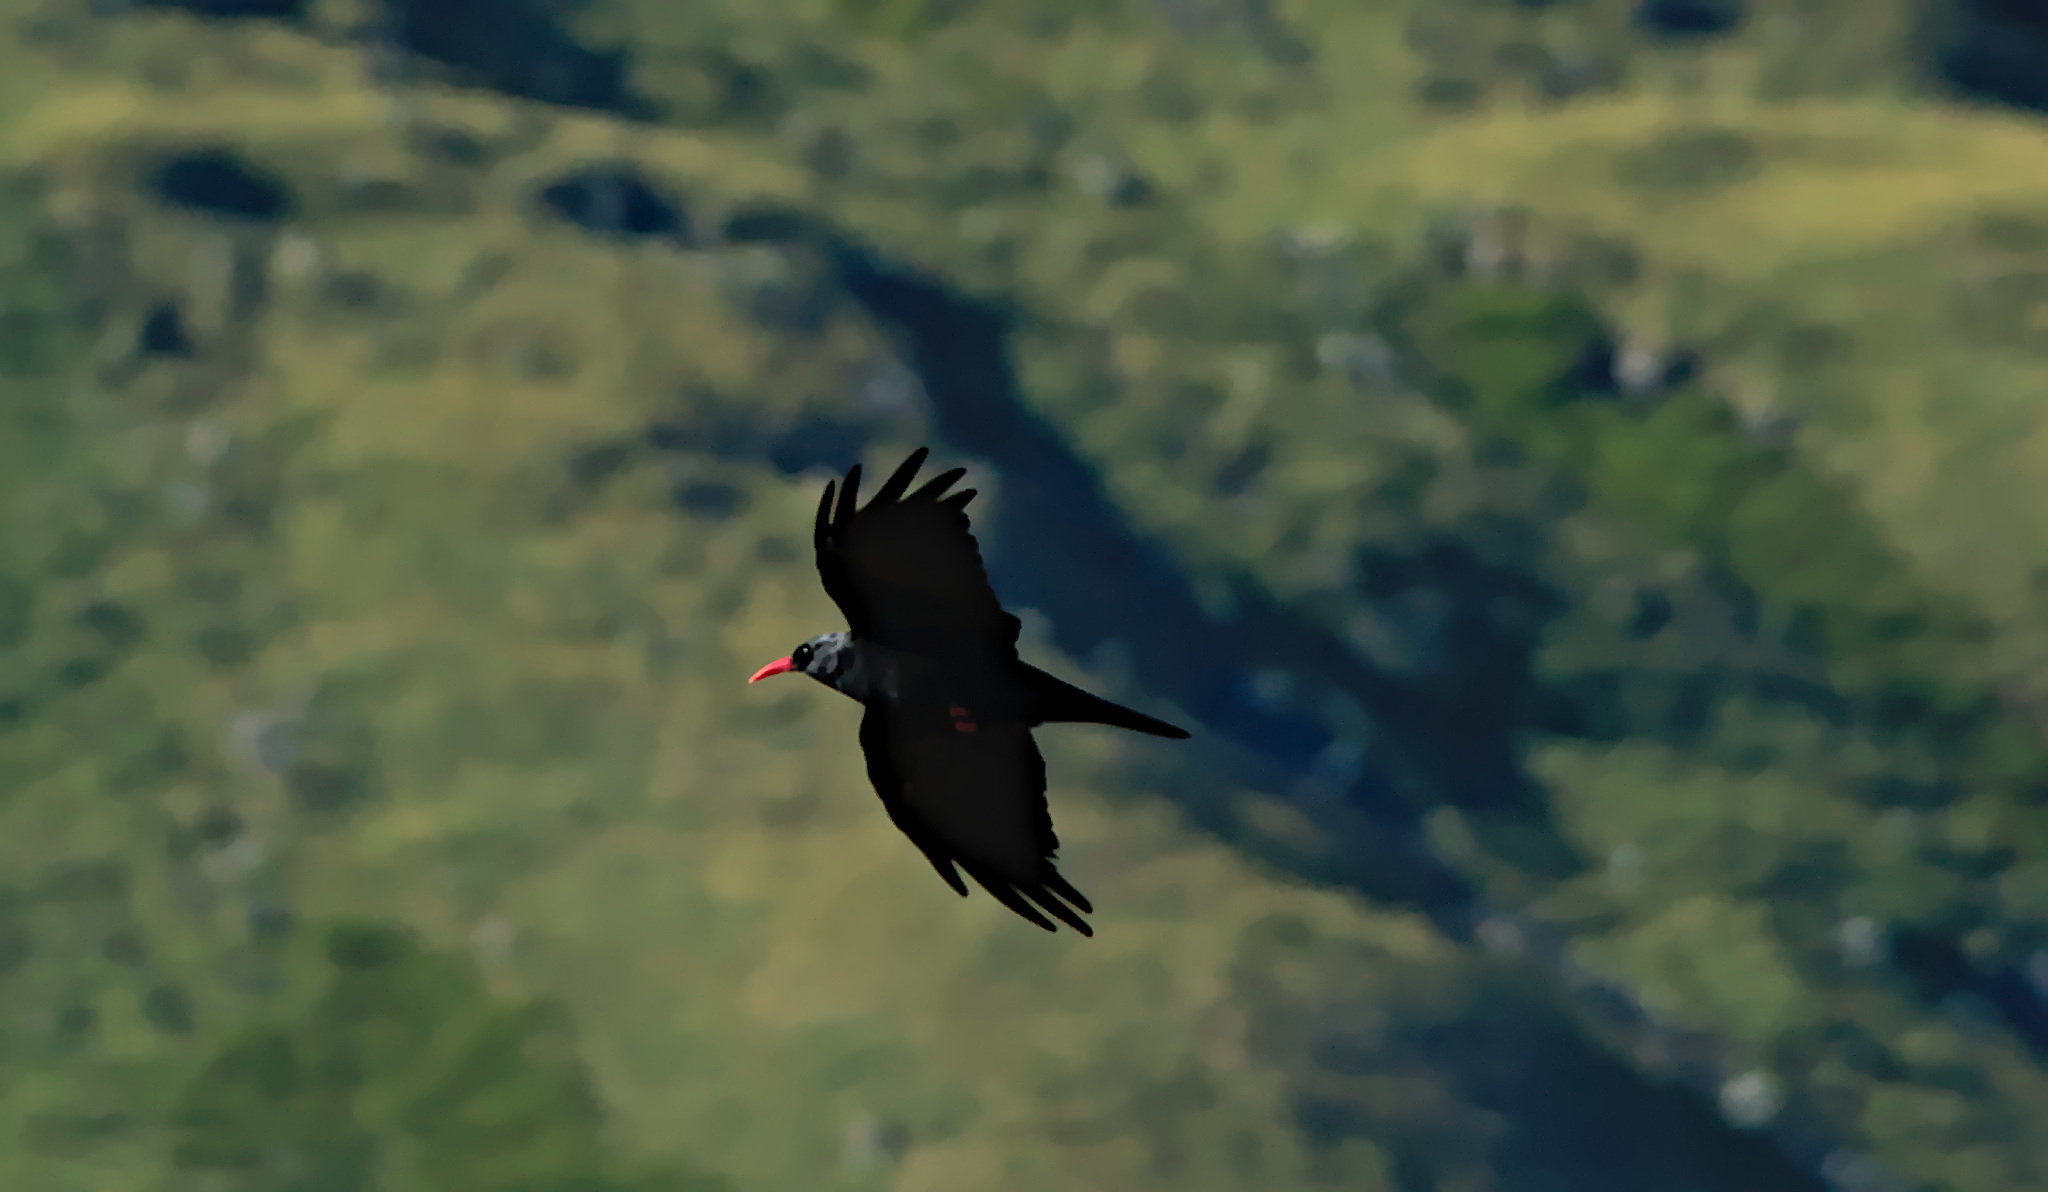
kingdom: Animalia
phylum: Chordata
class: Aves
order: Passeriformes
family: Corvidae
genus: Pyrrhocorax
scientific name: Pyrrhocorax pyrrhocorax
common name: Red-billed chough
